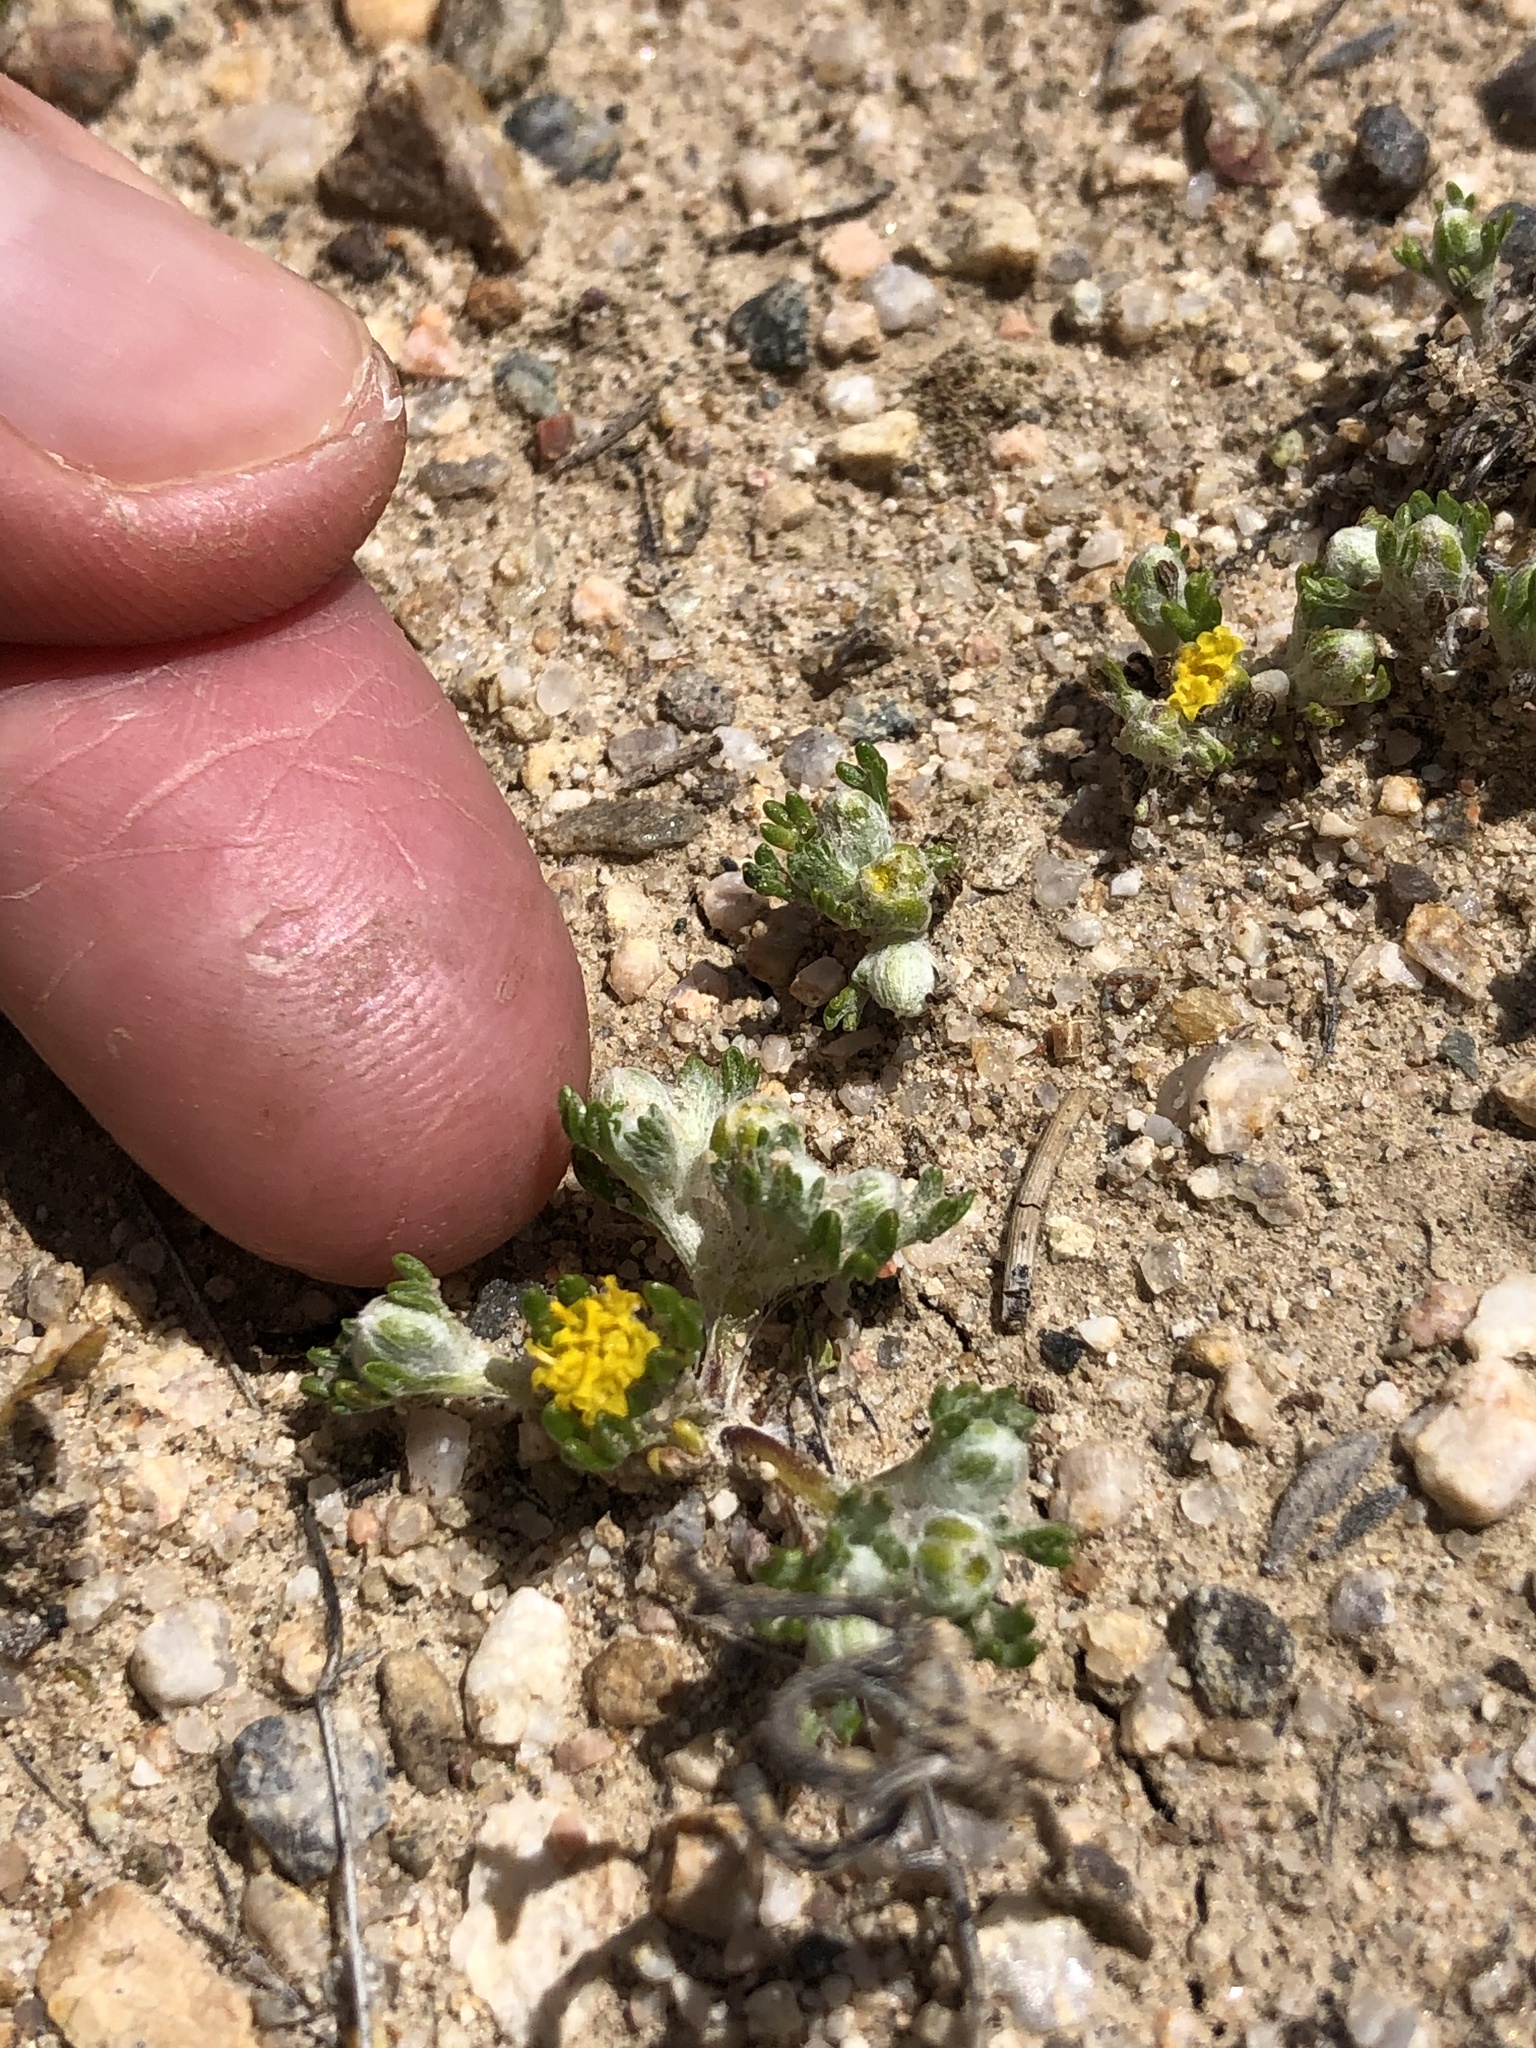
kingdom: Plantae
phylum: Tracheophyta
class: Magnoliopsida
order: Asterales
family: Asteraceae
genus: Eriophyllum
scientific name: Eriophyllum pringlei
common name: Pringle's woolly-sunflower
